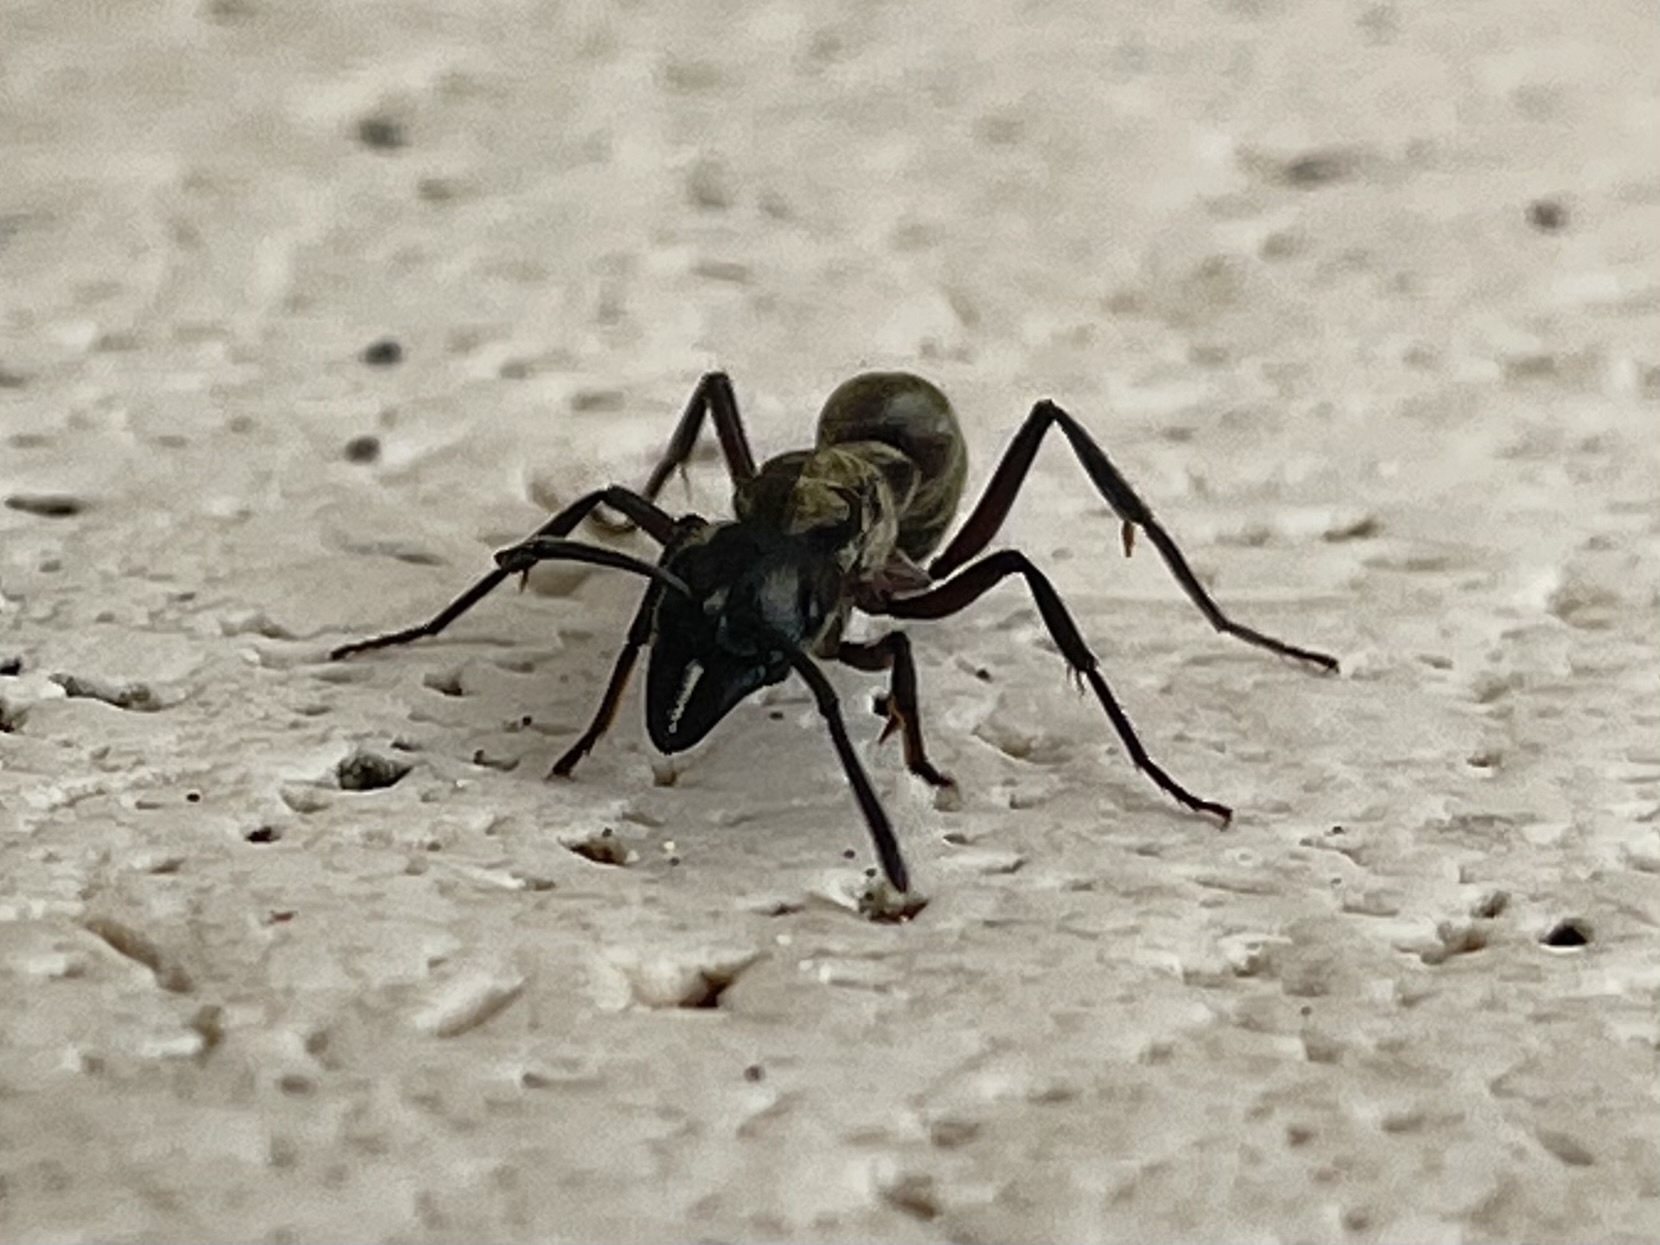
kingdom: Animalia
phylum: Arthropoda
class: Insecta
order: Hymenoptera
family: Formicidae
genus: Pachycondyla
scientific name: Pachycondyla villosa
